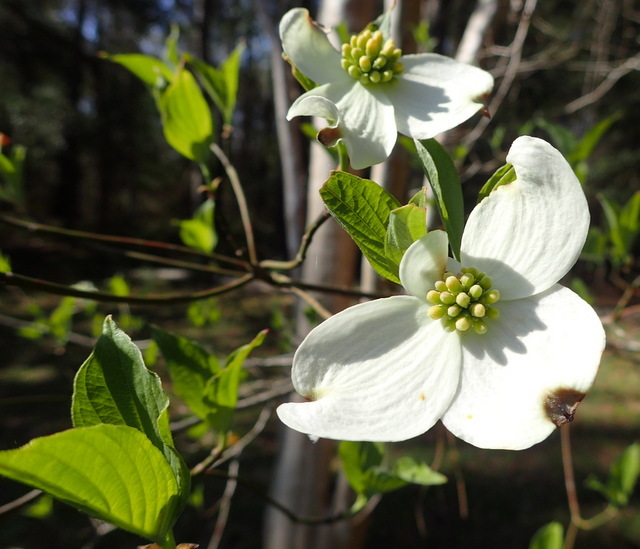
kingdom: Plantae
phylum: Tracheophyta
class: Magnoliopsida
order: Cornales
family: Cornaceae
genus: Cornus
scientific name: Cornus florida
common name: Flowering dogwood
